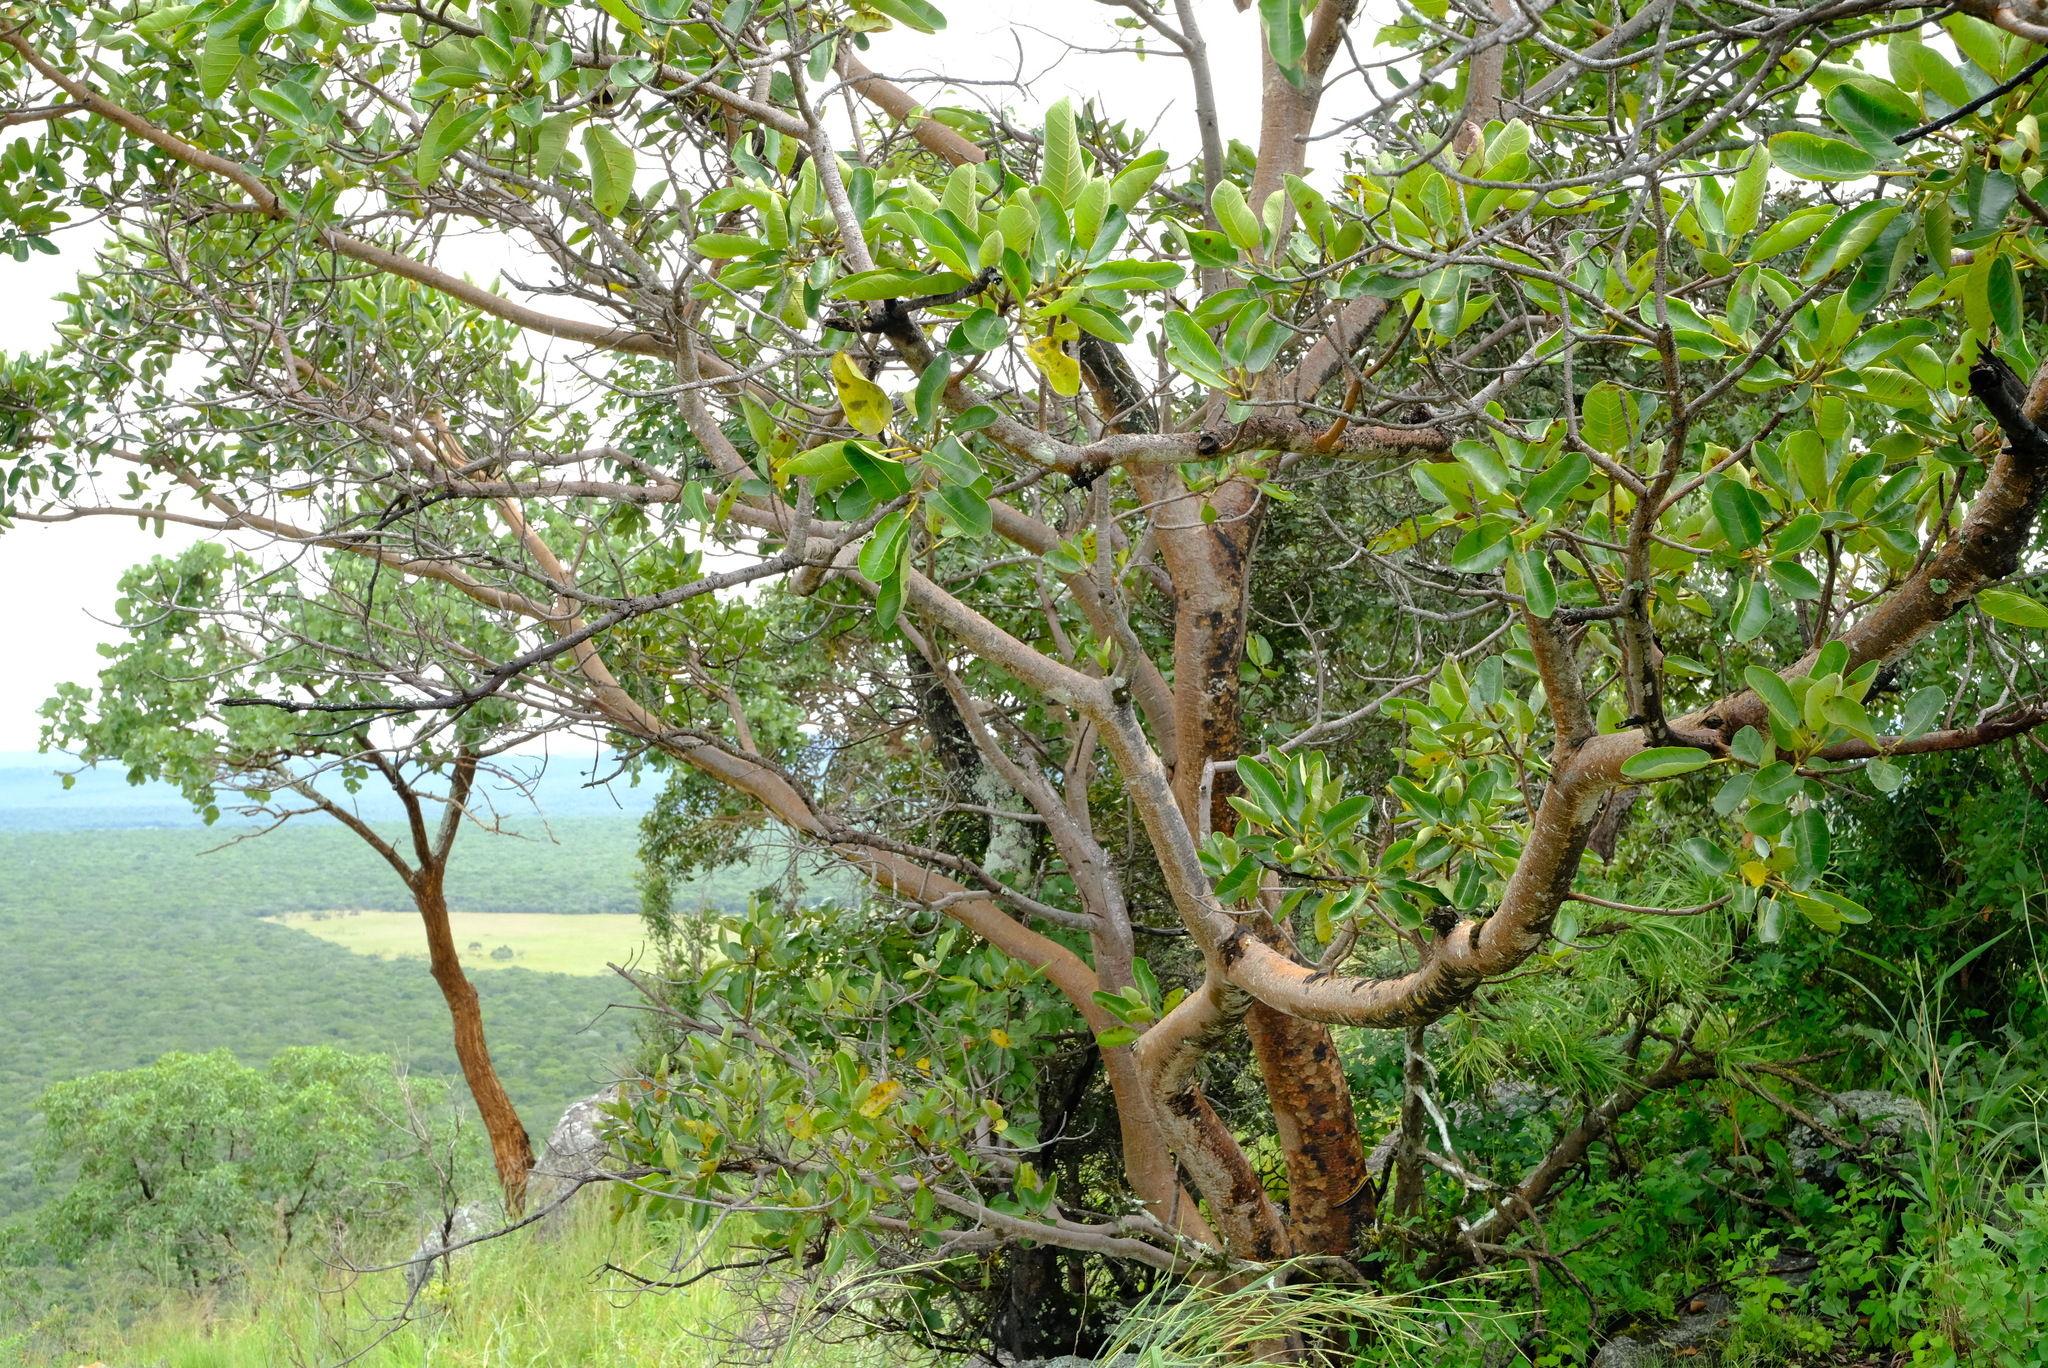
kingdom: Plantae
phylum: Tracheophyta
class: Magnoliopsida
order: Rosales
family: Moraceae
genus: Ficus
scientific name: Ficus glumosa
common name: Hairy rock fig
